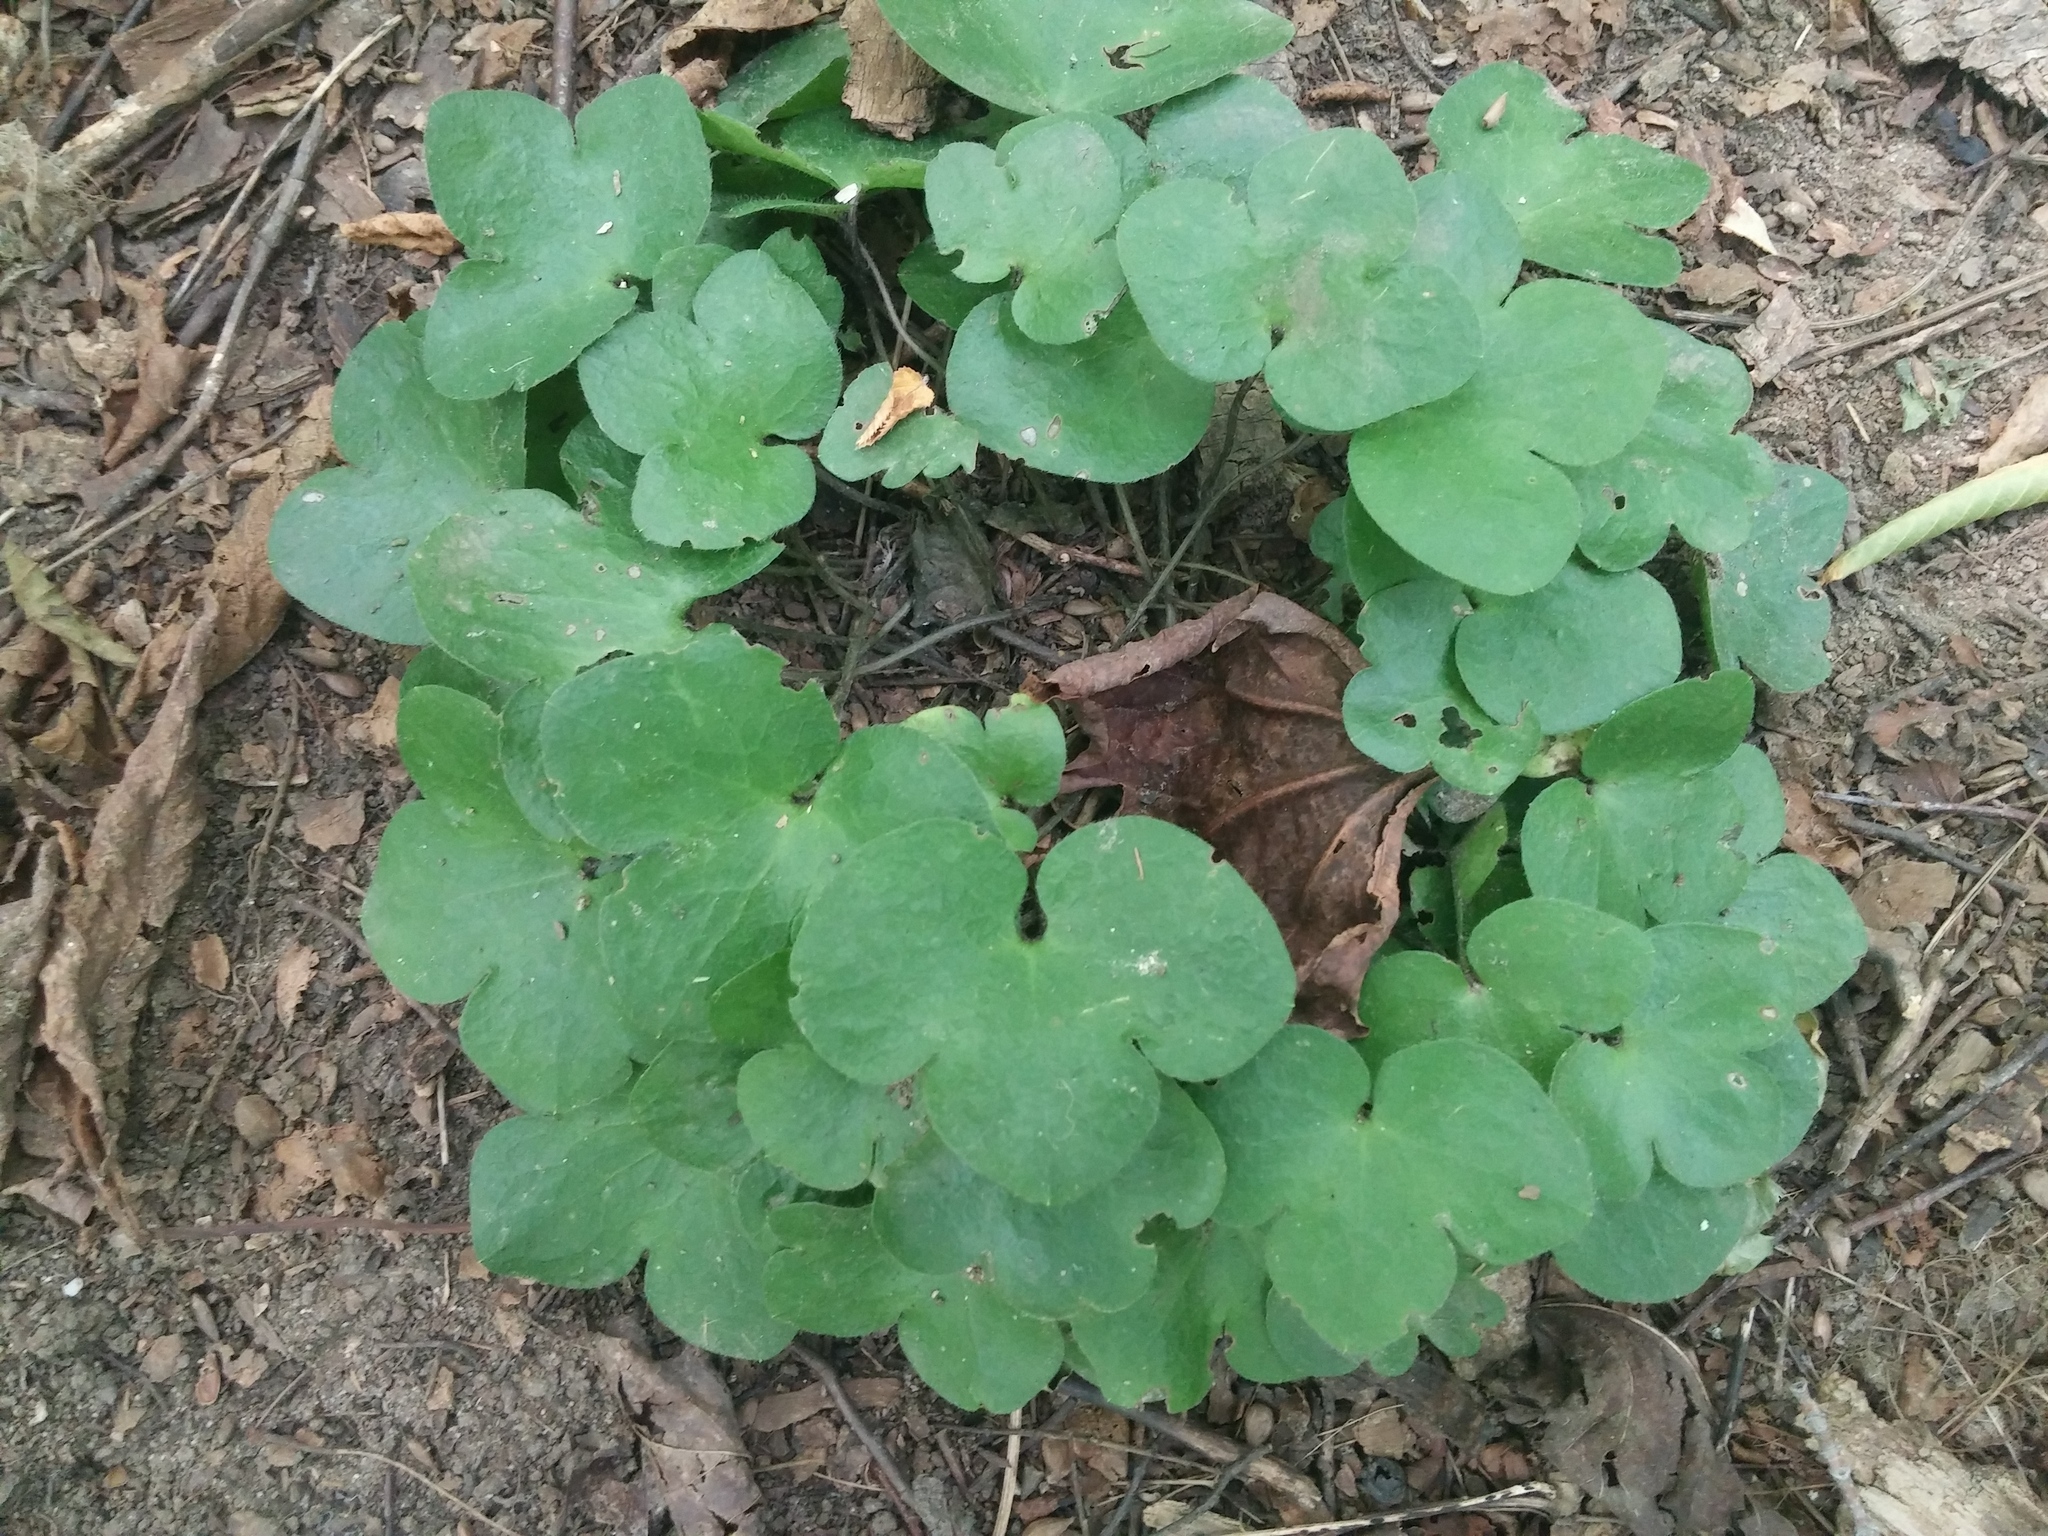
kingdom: Plantae
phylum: Tracheophyta
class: Magnoliopsida
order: Ranunculales
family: Ranunculaceae
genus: Hepatica
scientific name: Hepatica americana
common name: American hepatica
